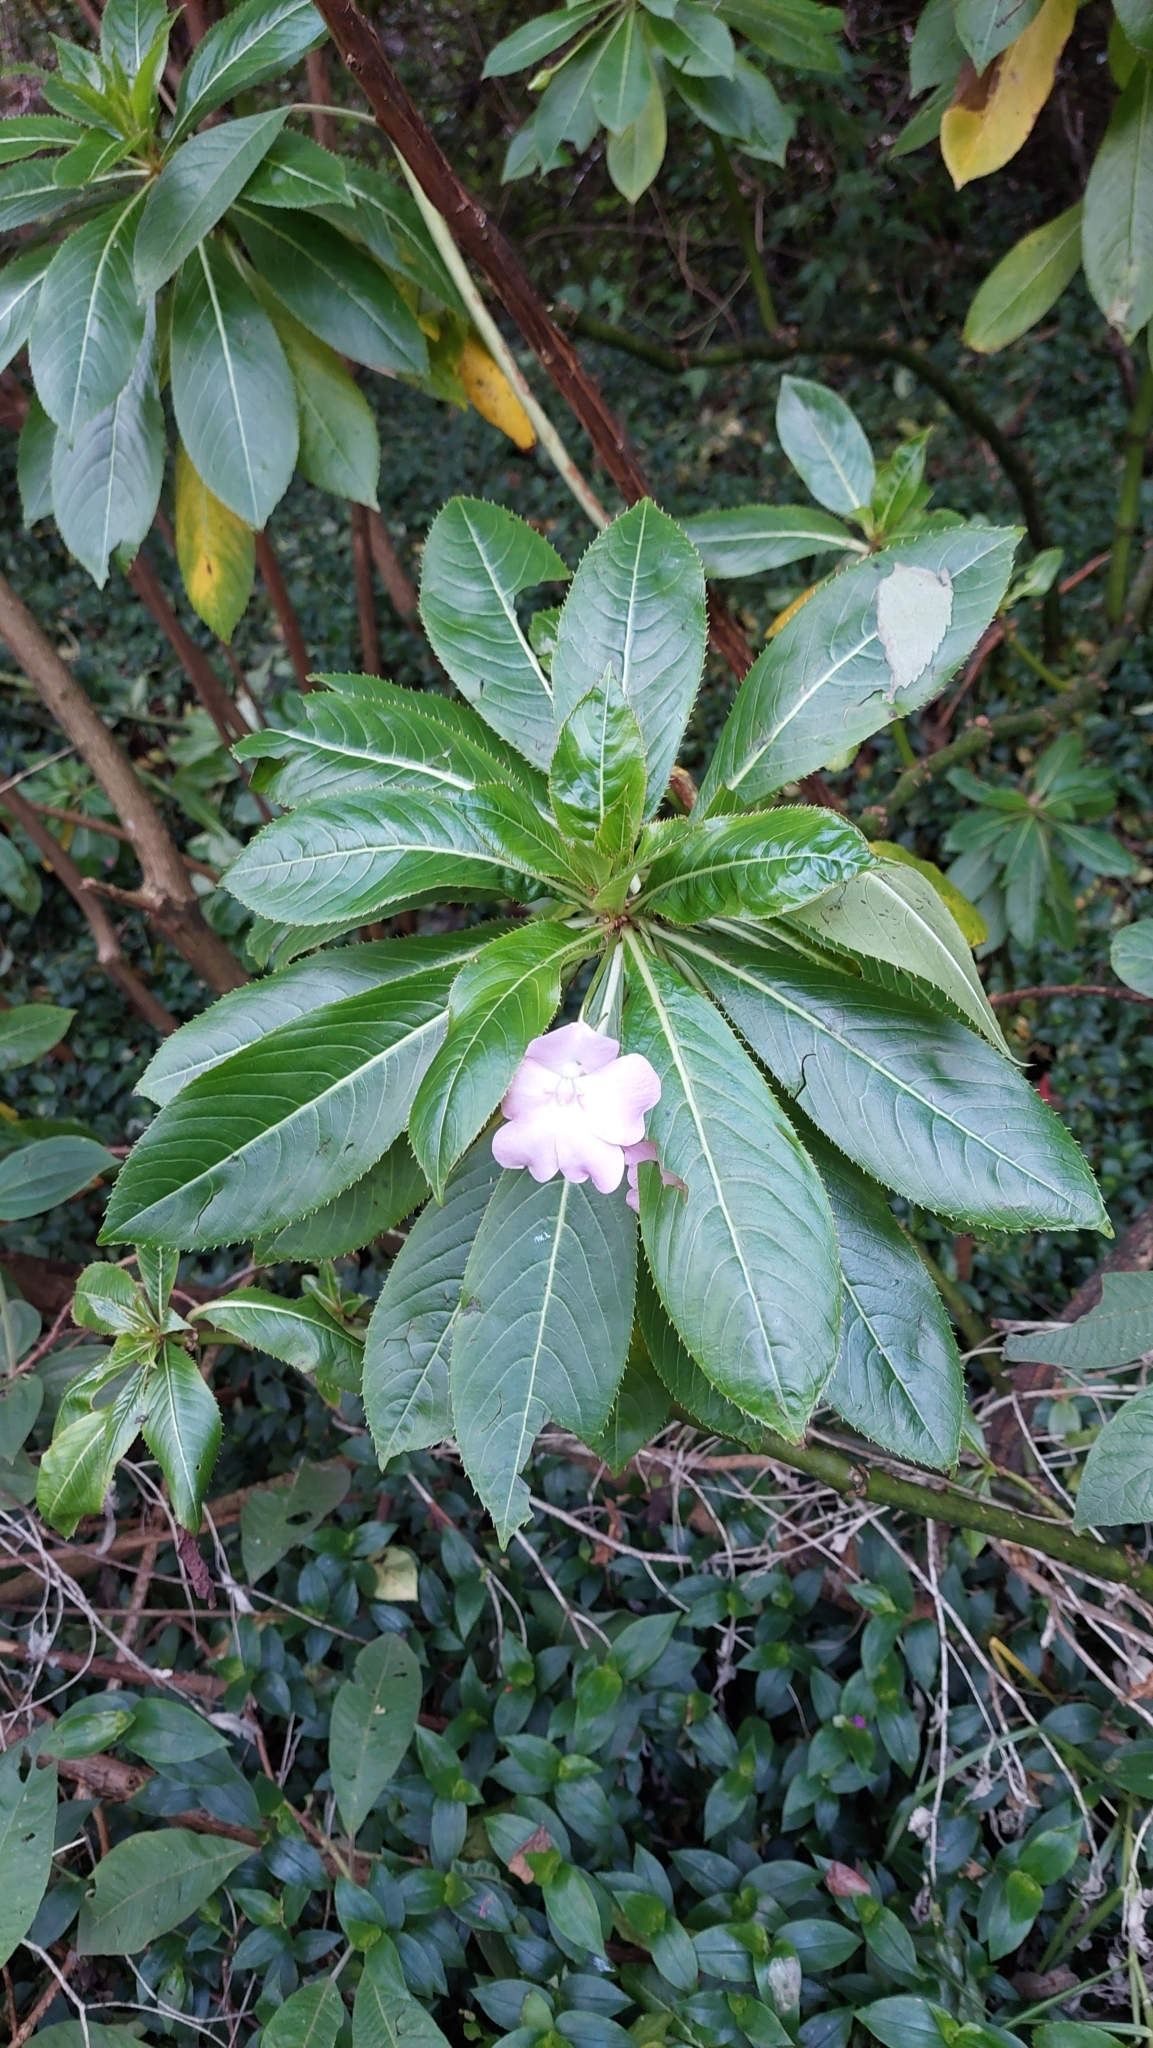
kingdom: Plantae
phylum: Tracheophyta
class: Magnoliopsida
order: Ericales
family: Balsaminaceae
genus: Impatiens
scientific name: Impatiens sodenii
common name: Oliver's touch-me-not
